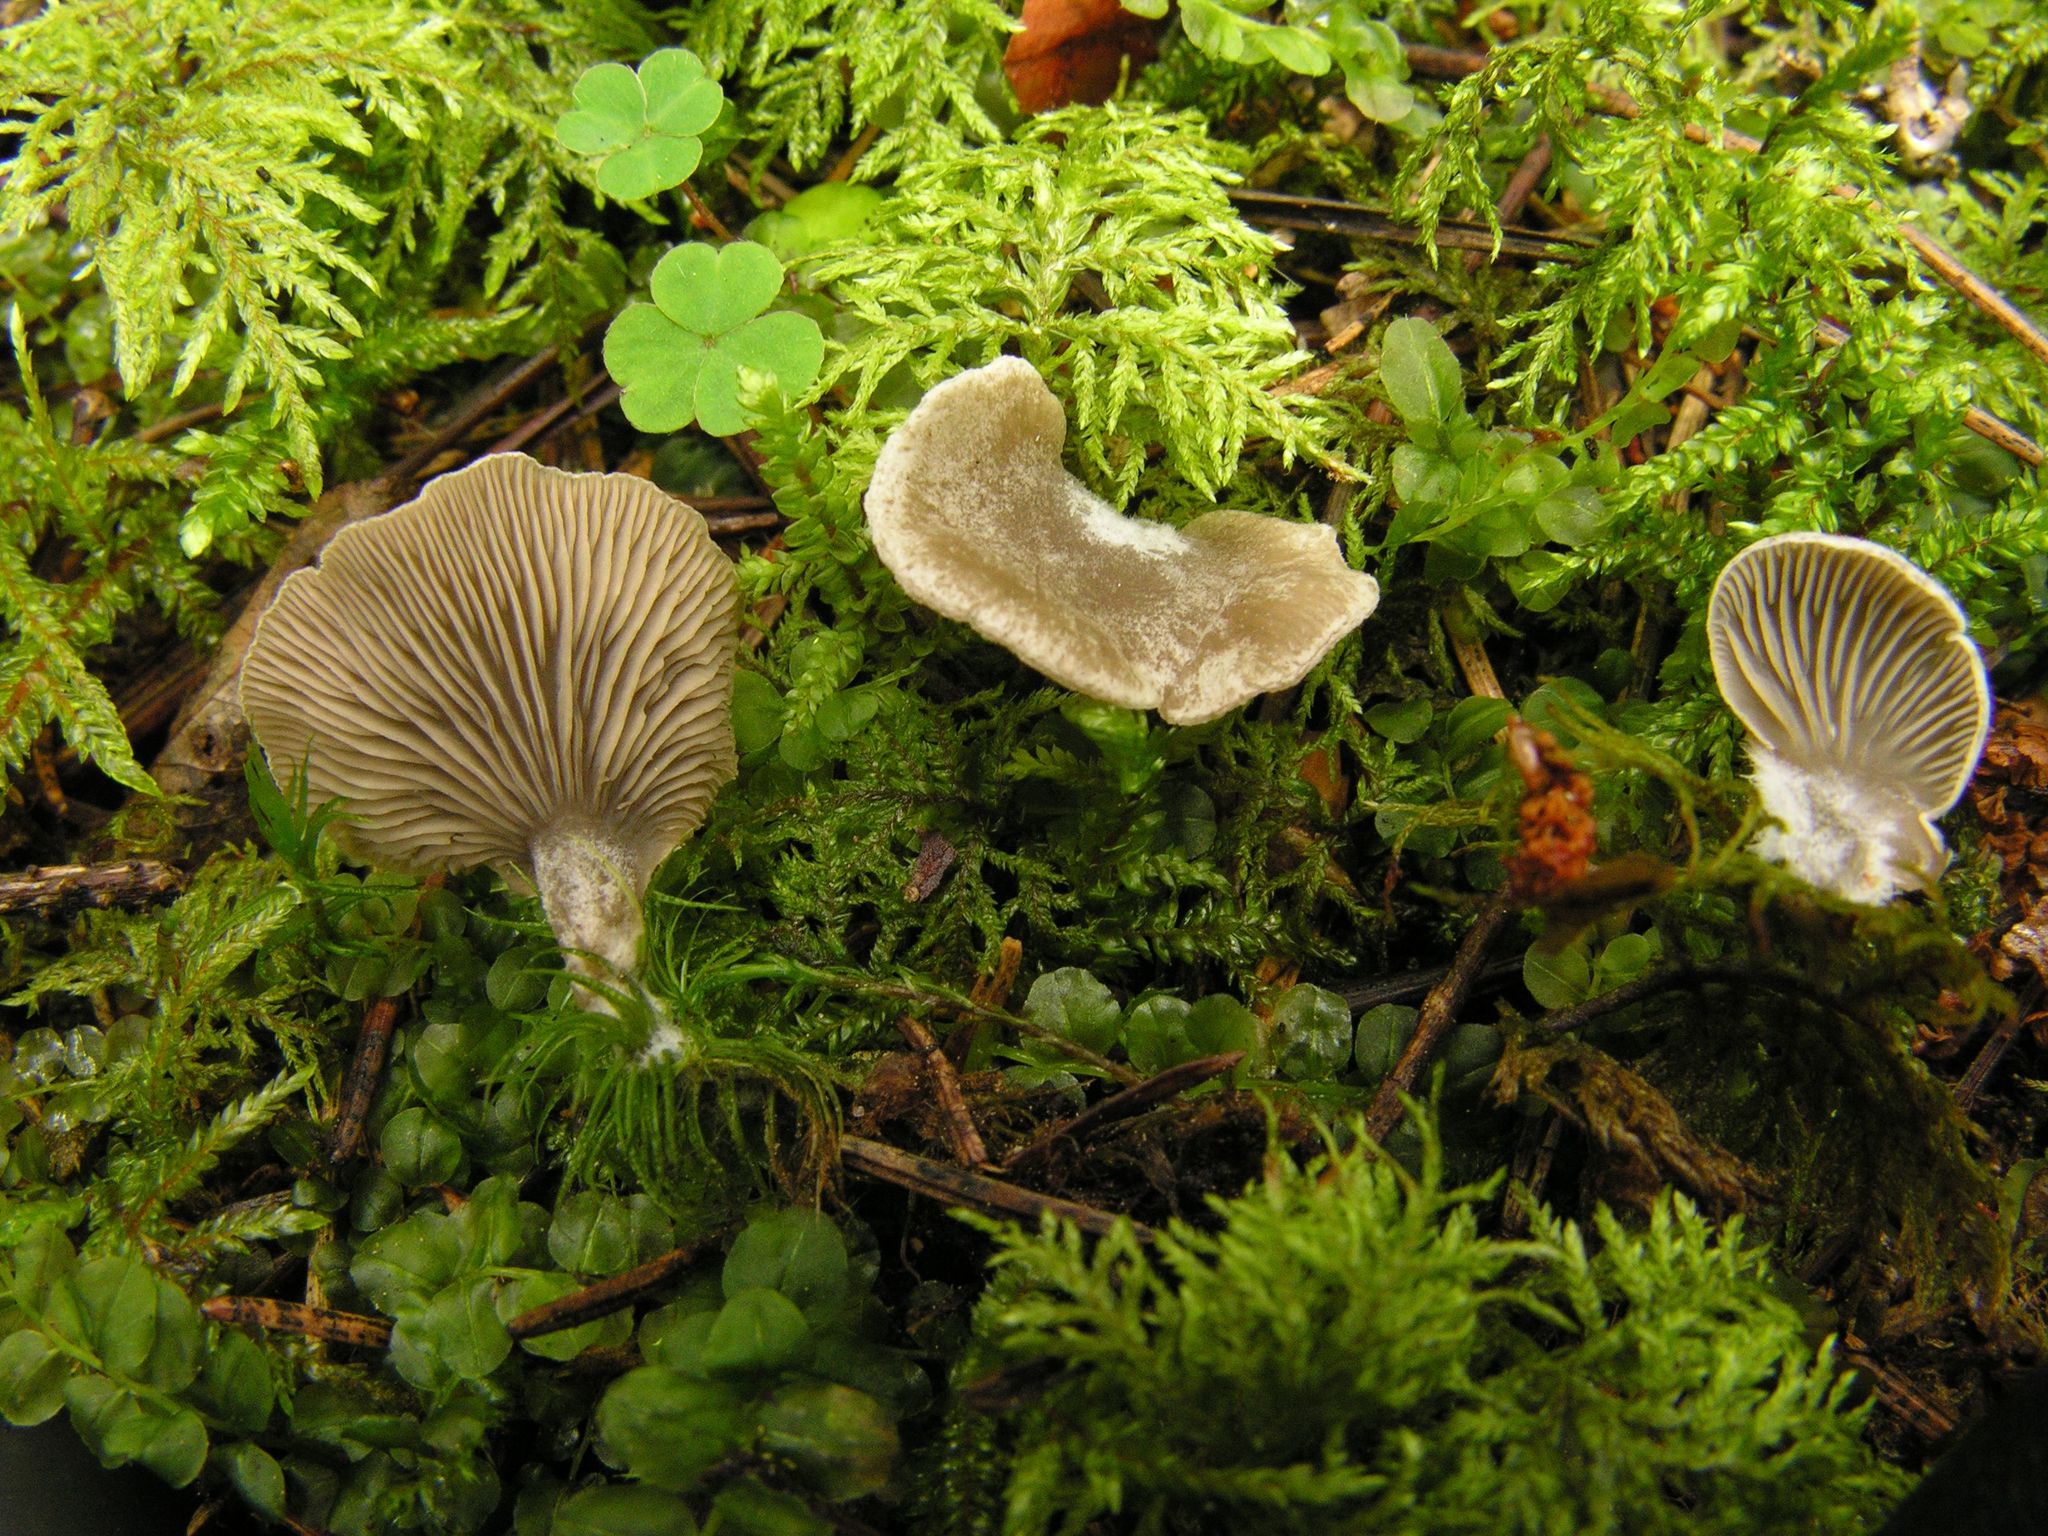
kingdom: Fungi
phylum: Basidiomycota
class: Agaricomycetes
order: Agaricales
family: Hygrophoraceae
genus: Arrhenia
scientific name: Arrhenia acerosa
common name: Moss oysterling
